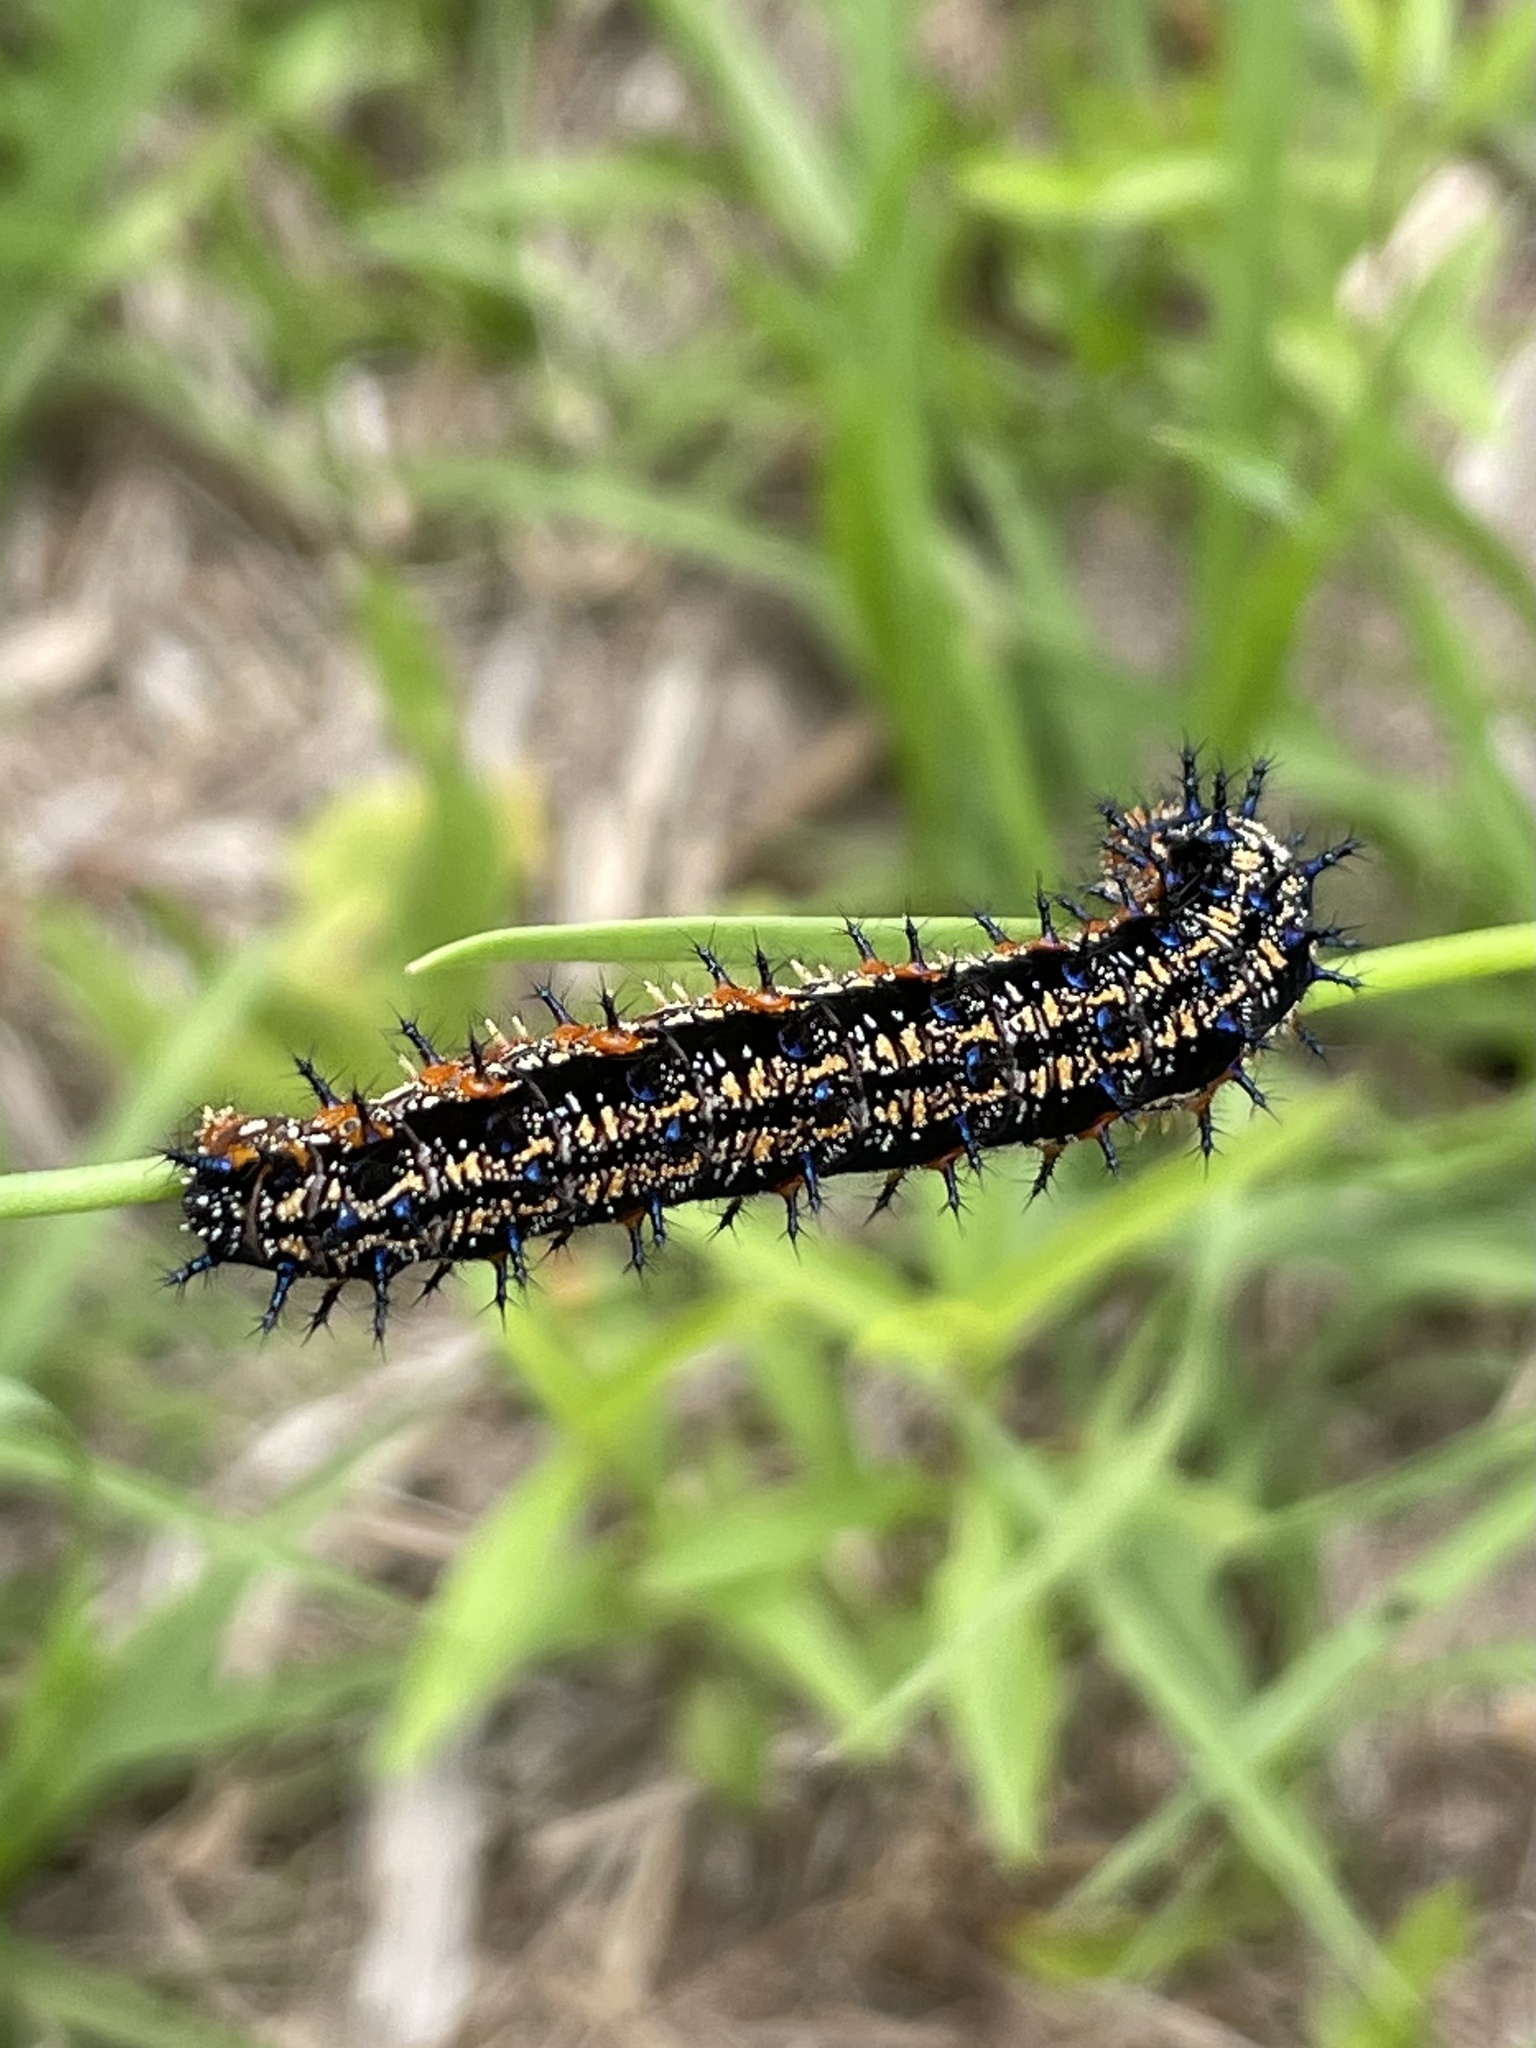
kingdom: Animalia
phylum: Arthropoda
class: Insecta
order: Lepidoptera
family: Nymphalidae
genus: Junonia
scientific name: Junonia coenia
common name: Common buckeye
